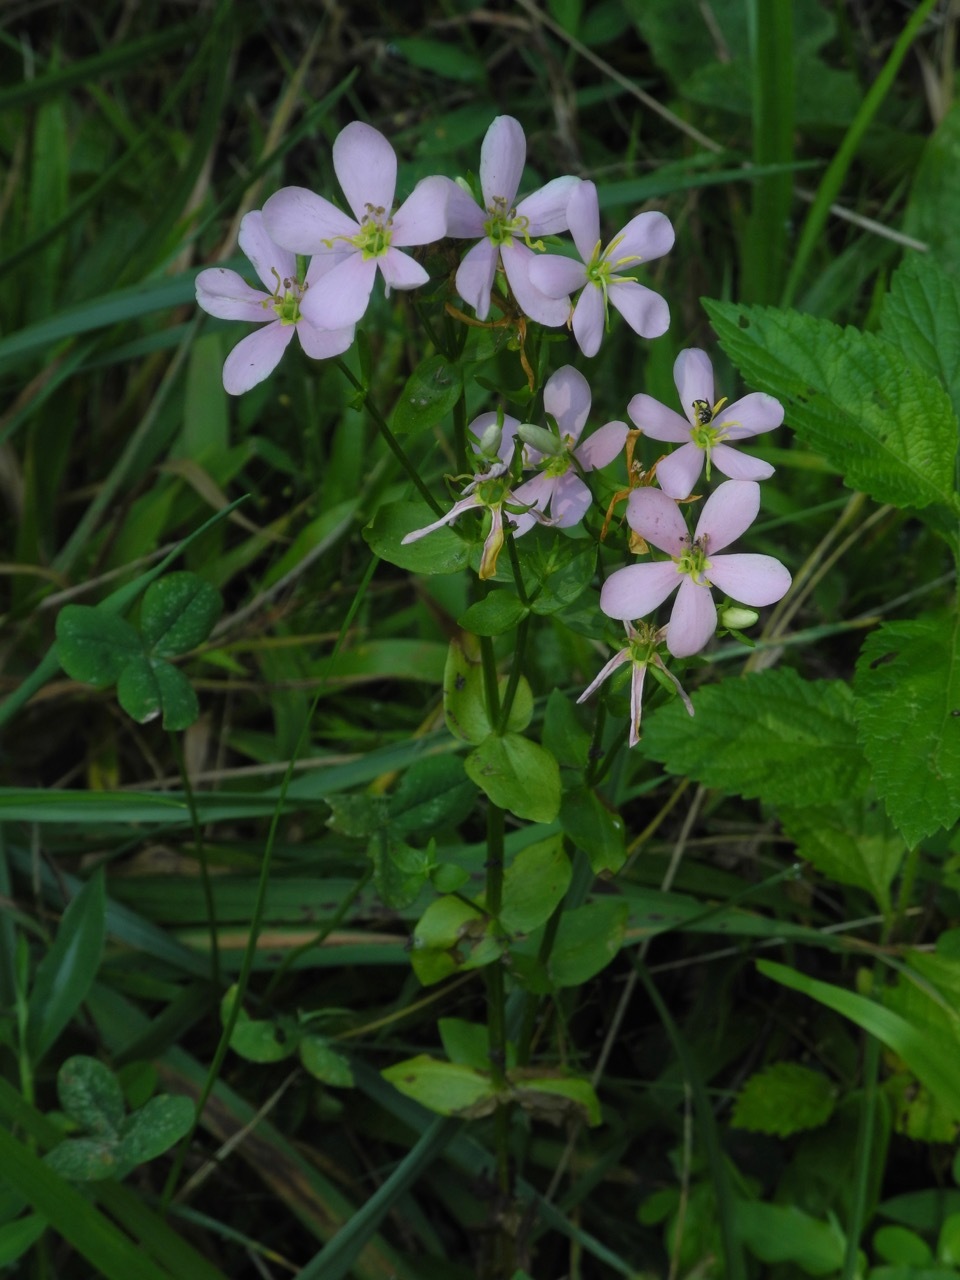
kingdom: Plantae
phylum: Tracheophyta
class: Magnoliopsida
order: Gentianales
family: Gentianaceae
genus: Sabatia
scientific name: Sabatia angularis
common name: Rose-pink
